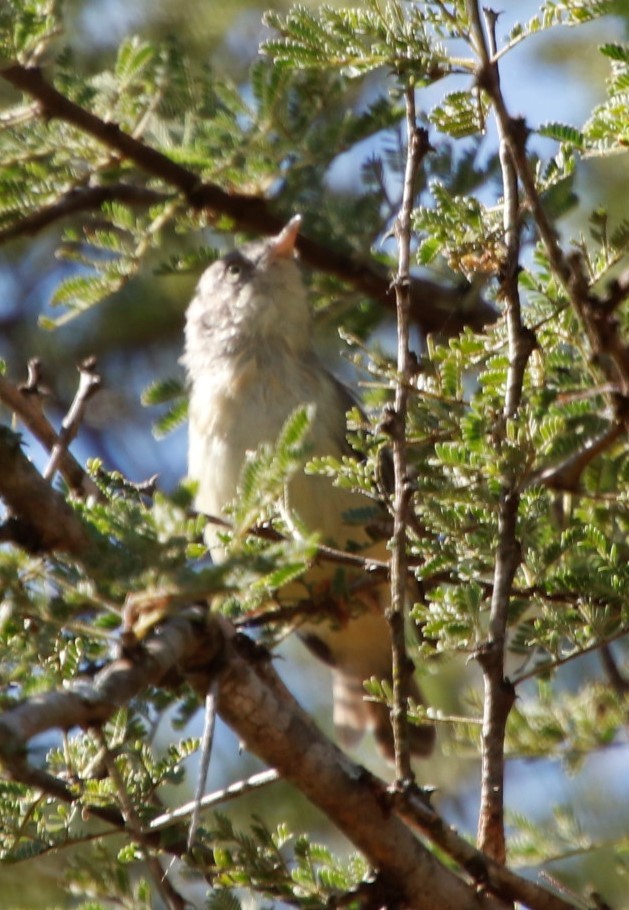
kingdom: Animalia
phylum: Chordata
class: Aves
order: Passeriformes
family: Cisticolidae
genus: Eremomela
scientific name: Eremomela usticollis
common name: Burnt-neck eremomela
